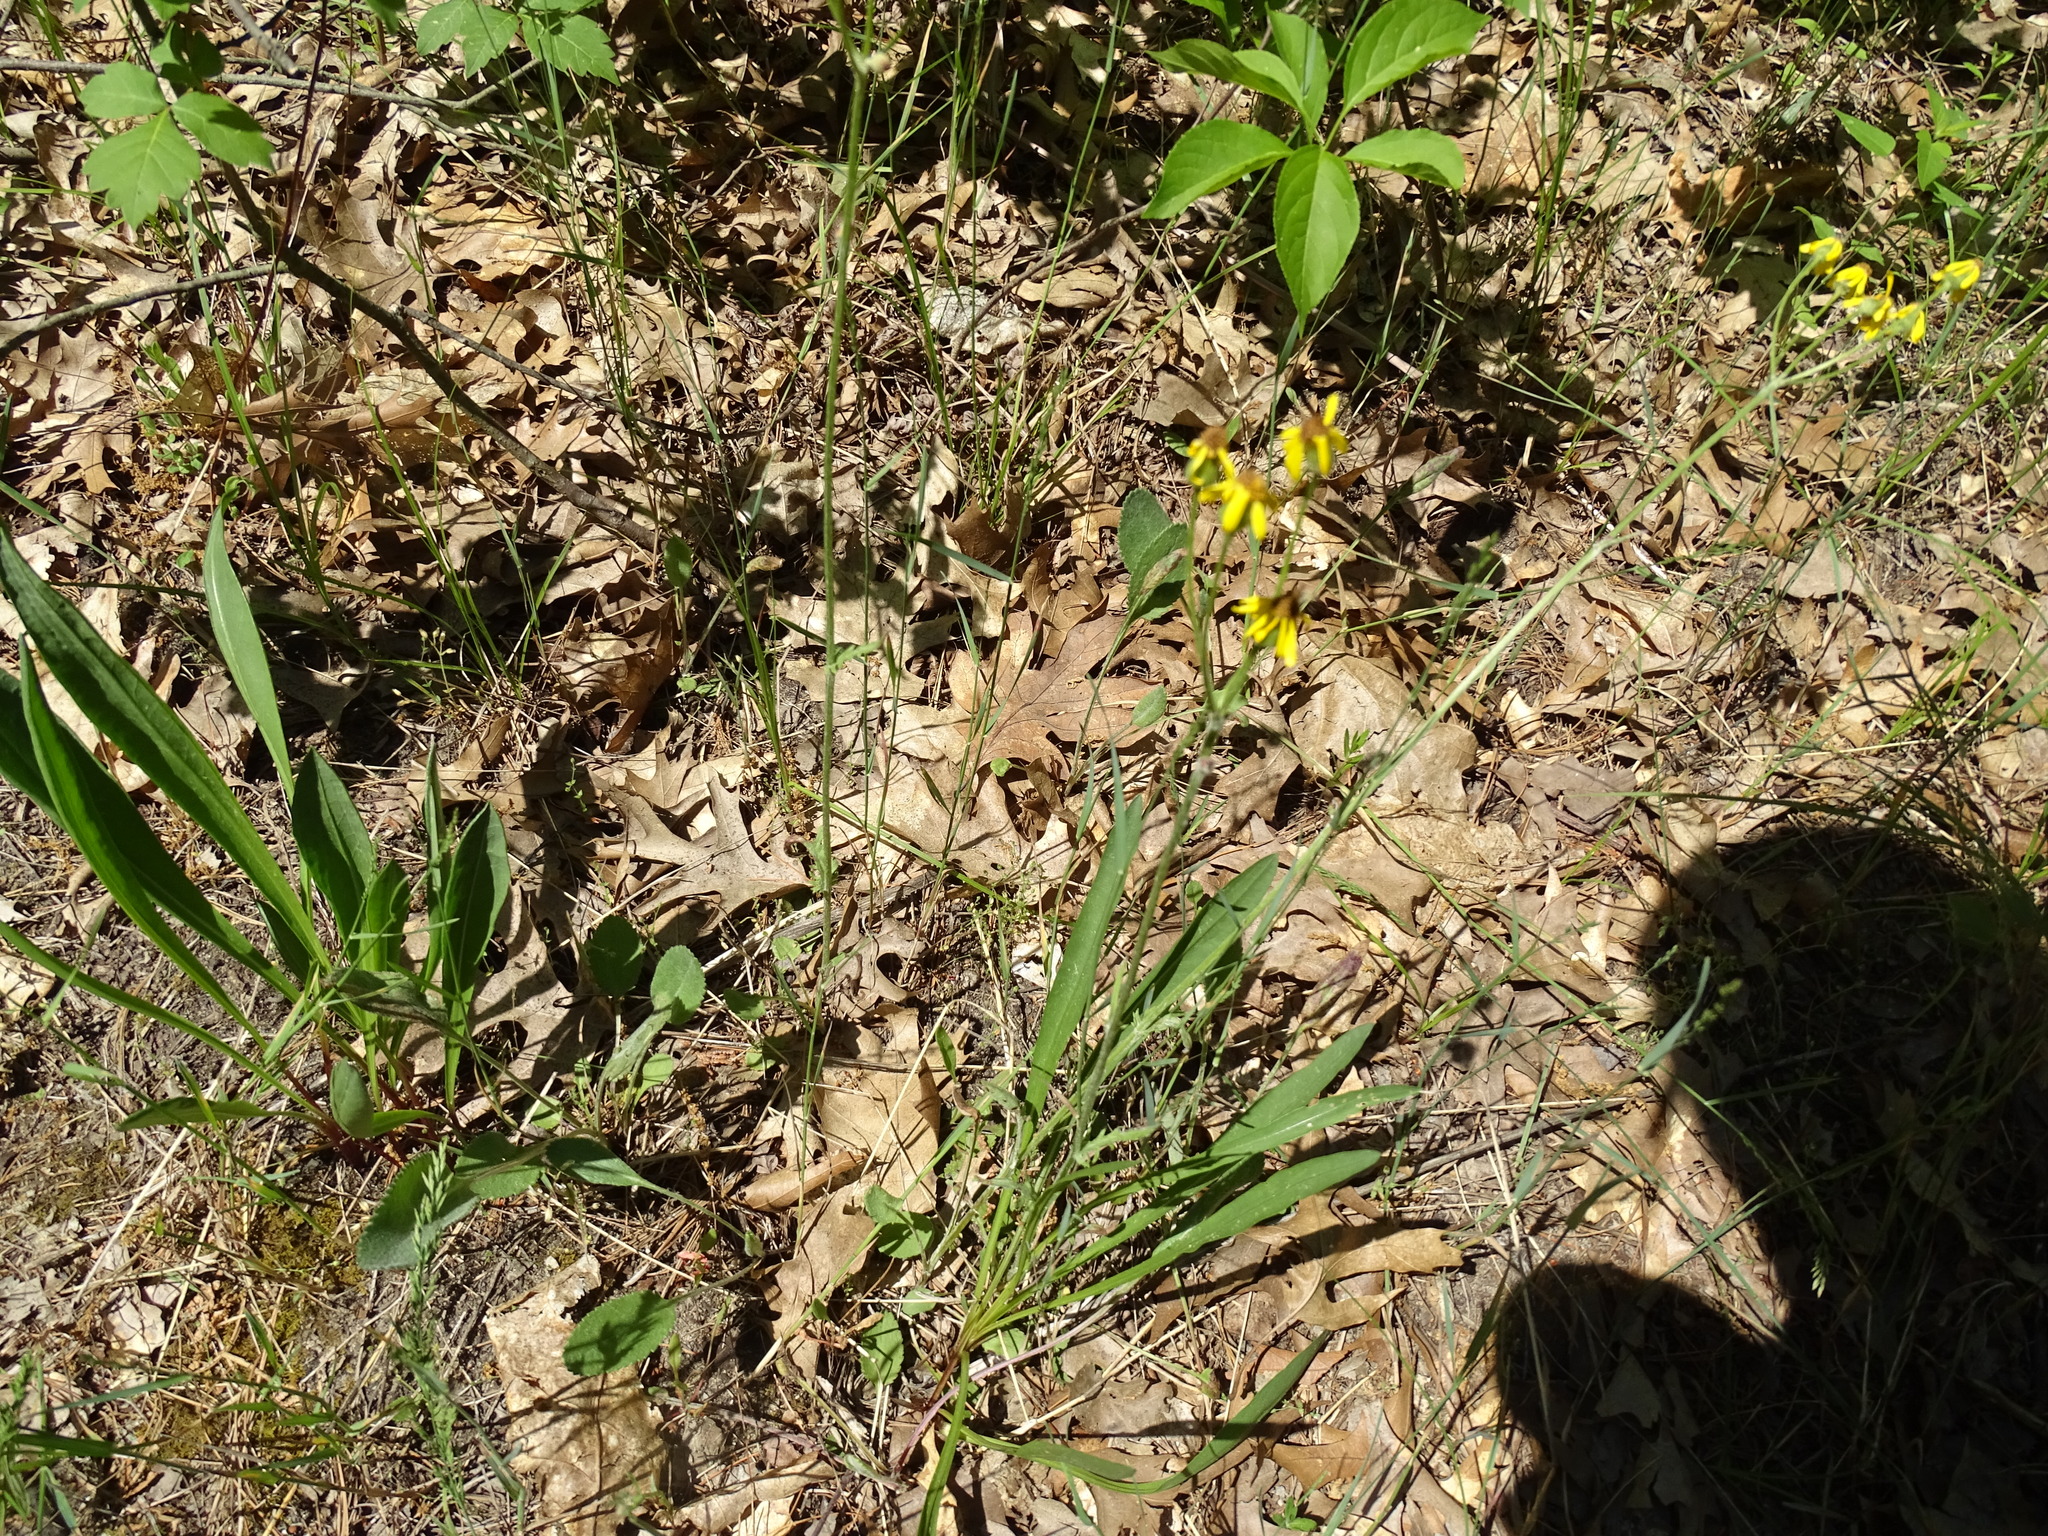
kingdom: Plantae
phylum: Tracheophyta
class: Magnoliopsida
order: Asterales
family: Asteraceae
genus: Packera
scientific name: Packera paupercula
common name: Balsam groundsel
